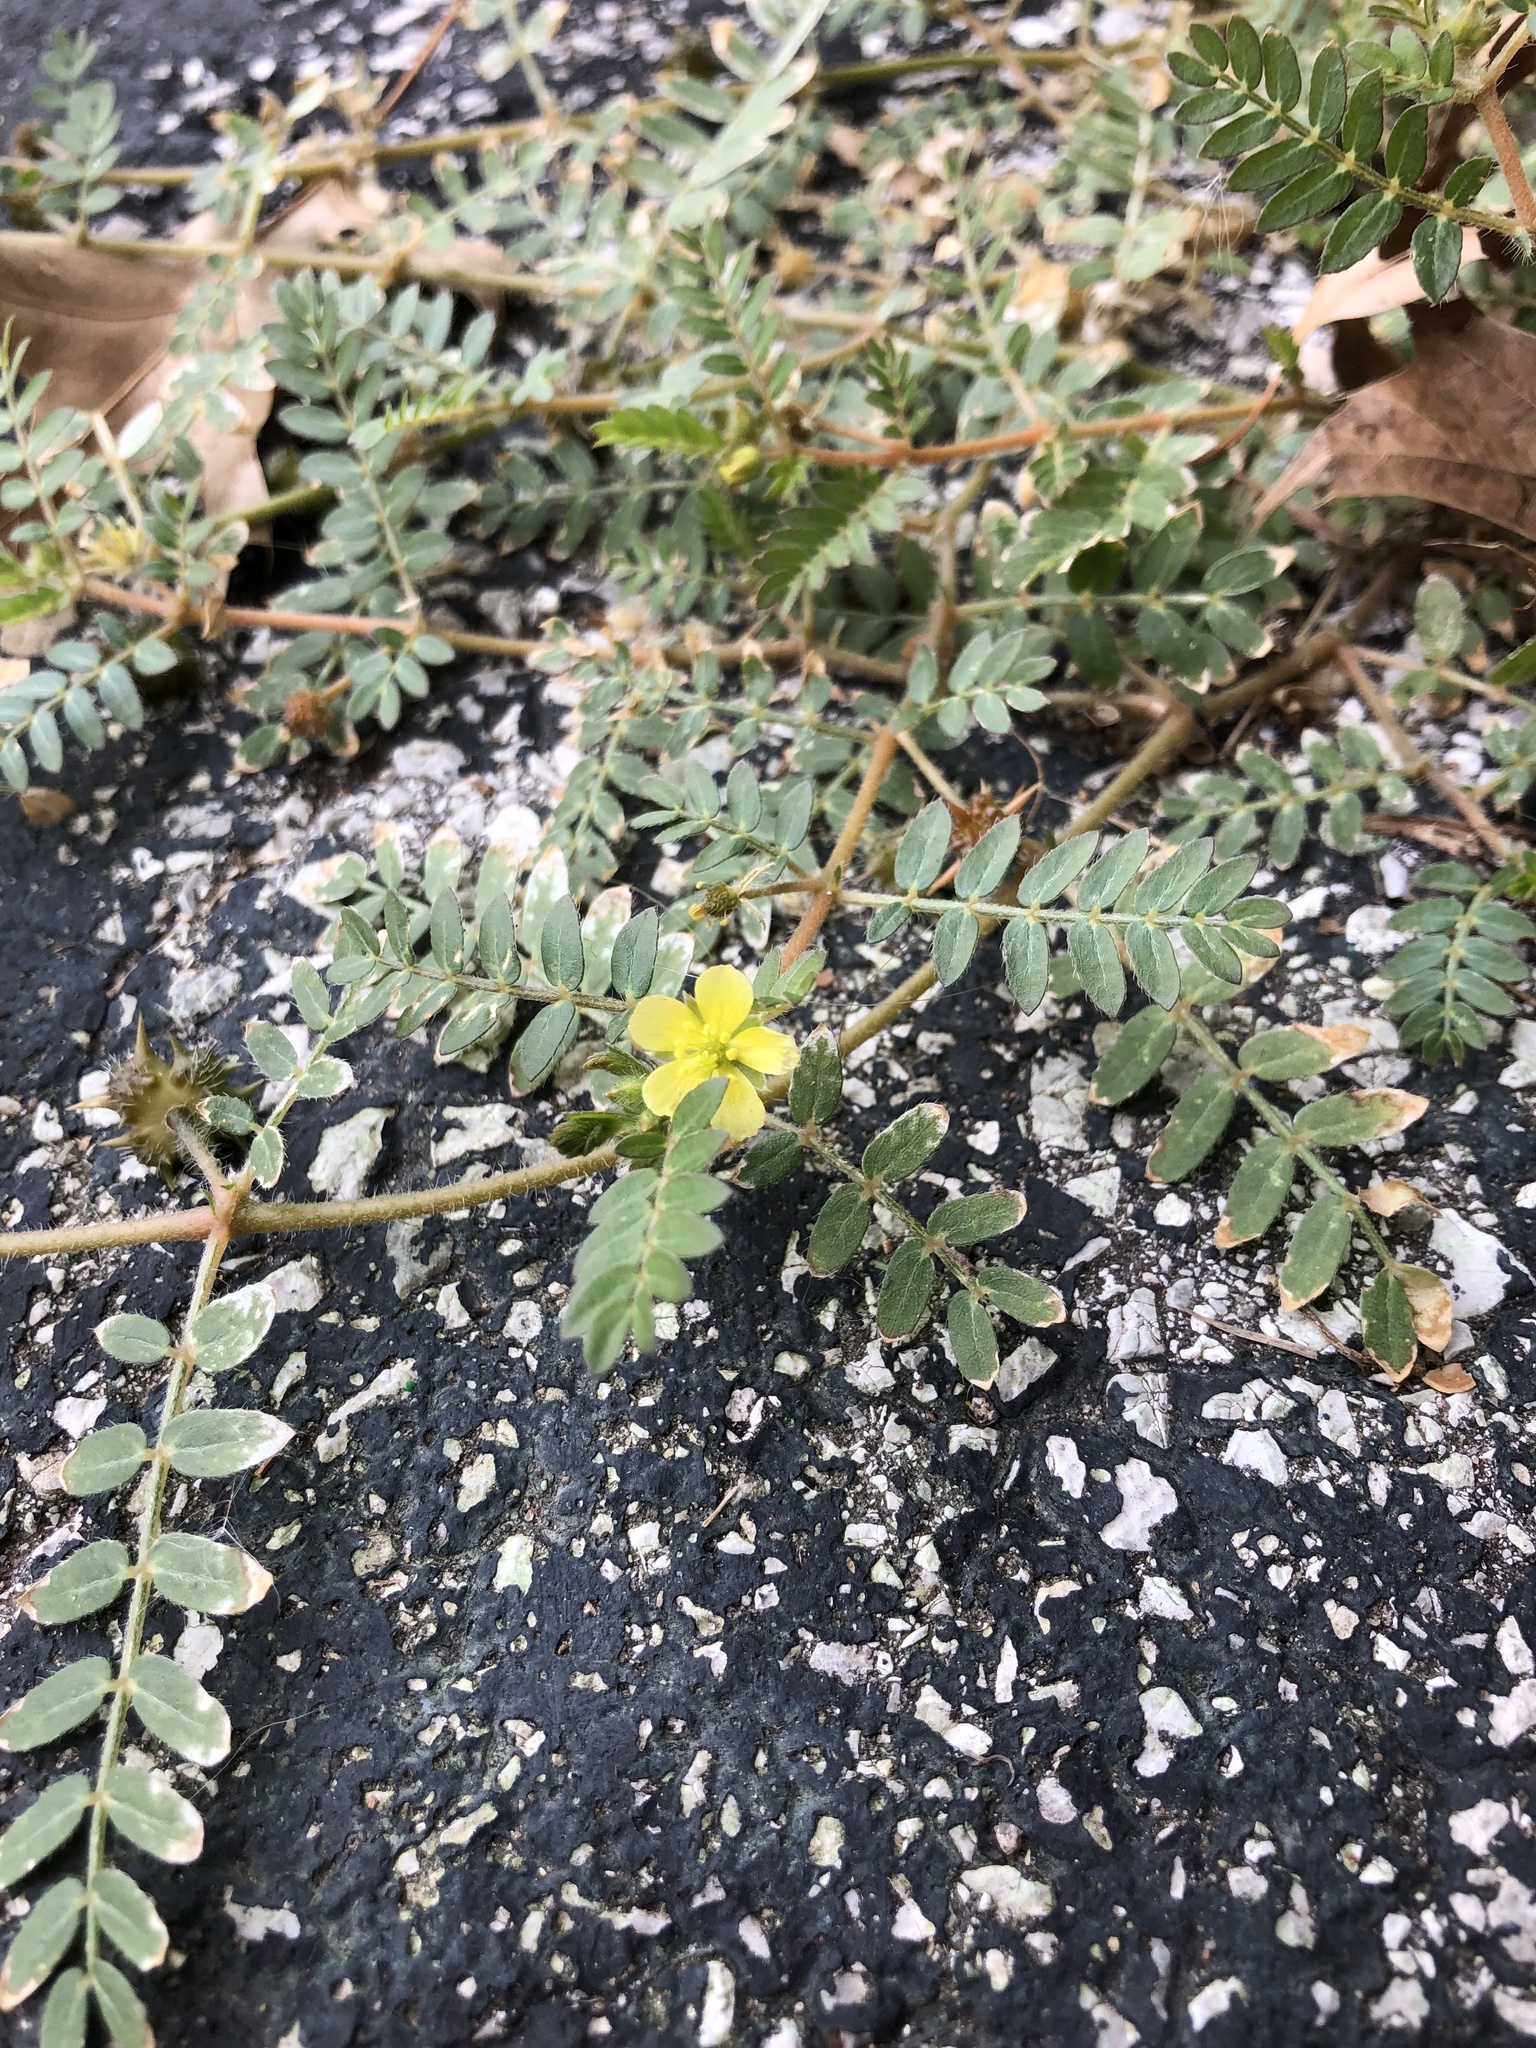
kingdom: Plantae
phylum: Tracheophyta
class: Magnoliopsida
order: Zygophyllales
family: Zygophyllaceae
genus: Tribulus
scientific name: Tribulus terrestris
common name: Puncturevine
